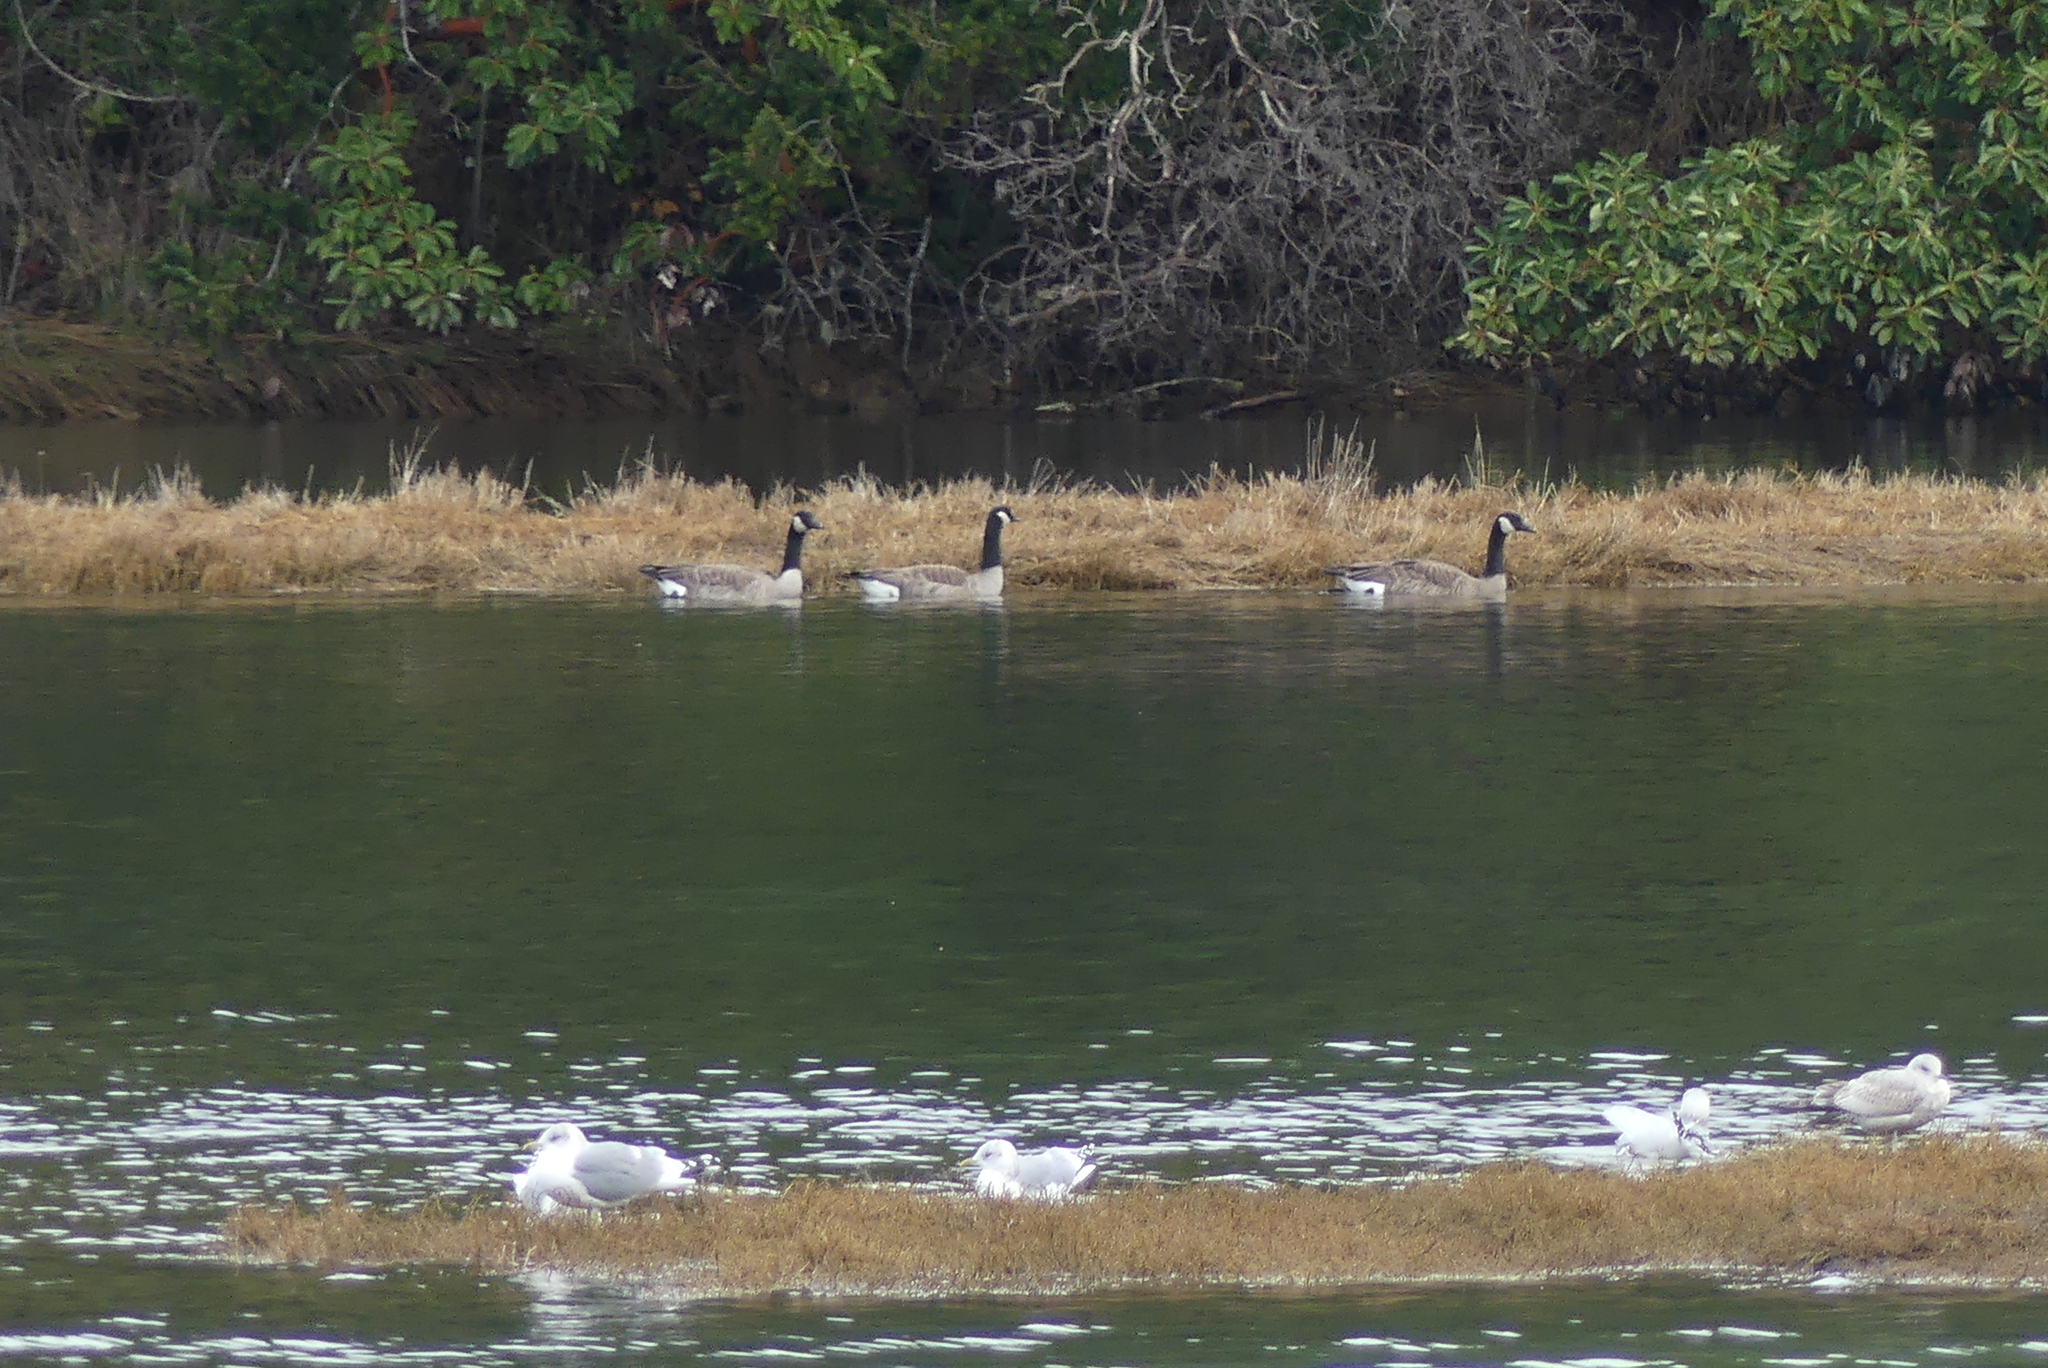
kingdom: Animalia
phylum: Chordata
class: Aves
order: Anseriformes
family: Anatidae
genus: Branta
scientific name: Branta canadensis
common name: Canada goose
